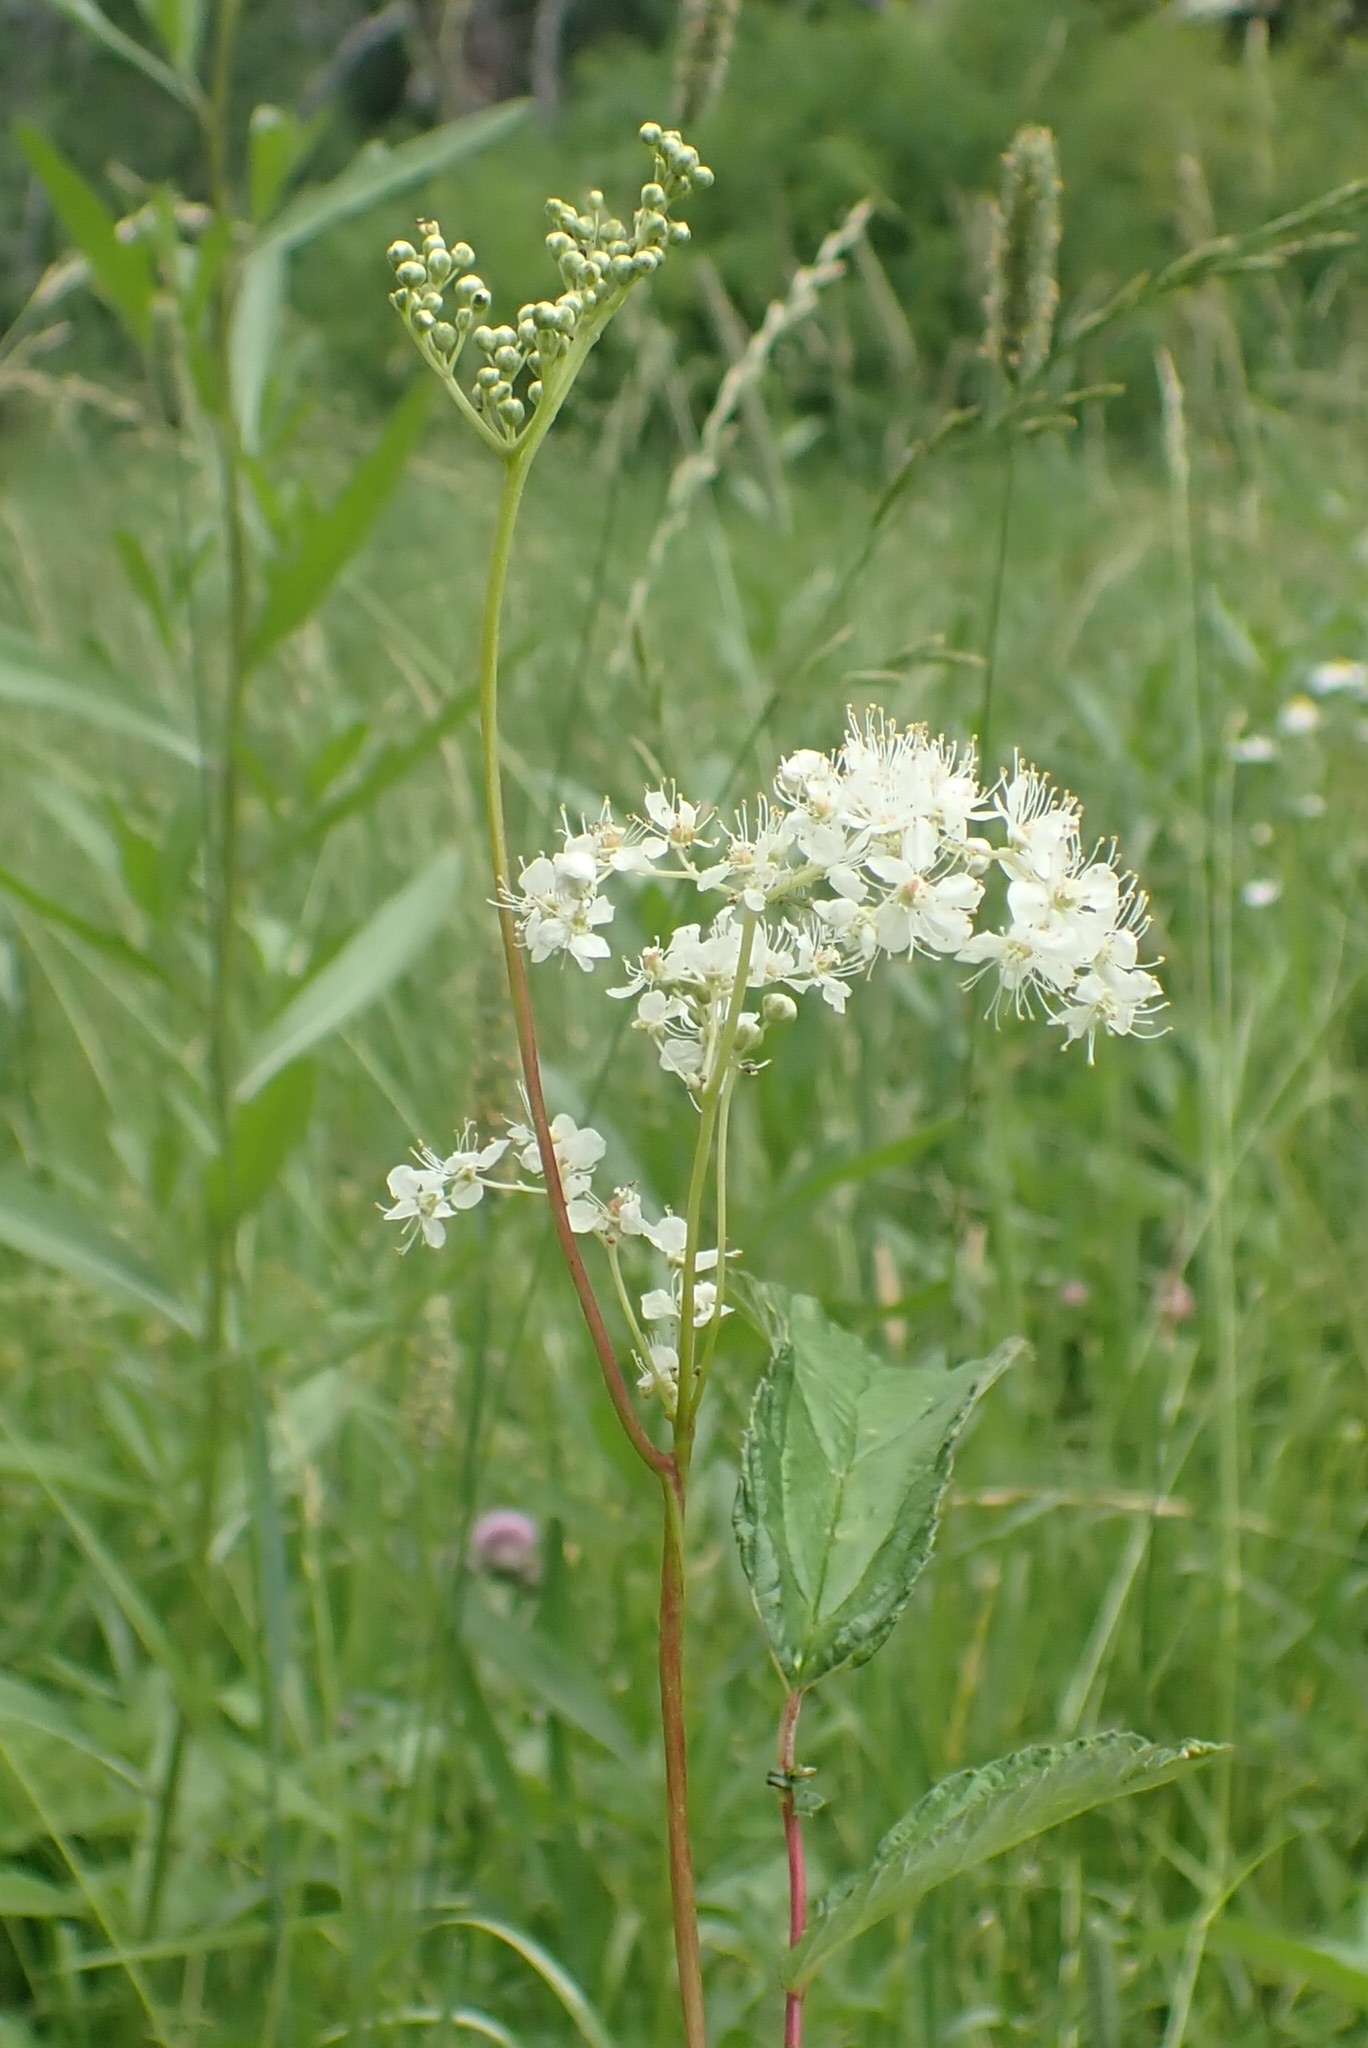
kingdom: Plantae
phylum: Tracheophyta
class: Magnoliopsida
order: Rosales
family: Rosaceae
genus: Filipendula
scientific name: Filipendula ulmaria
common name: Meadowsweet
